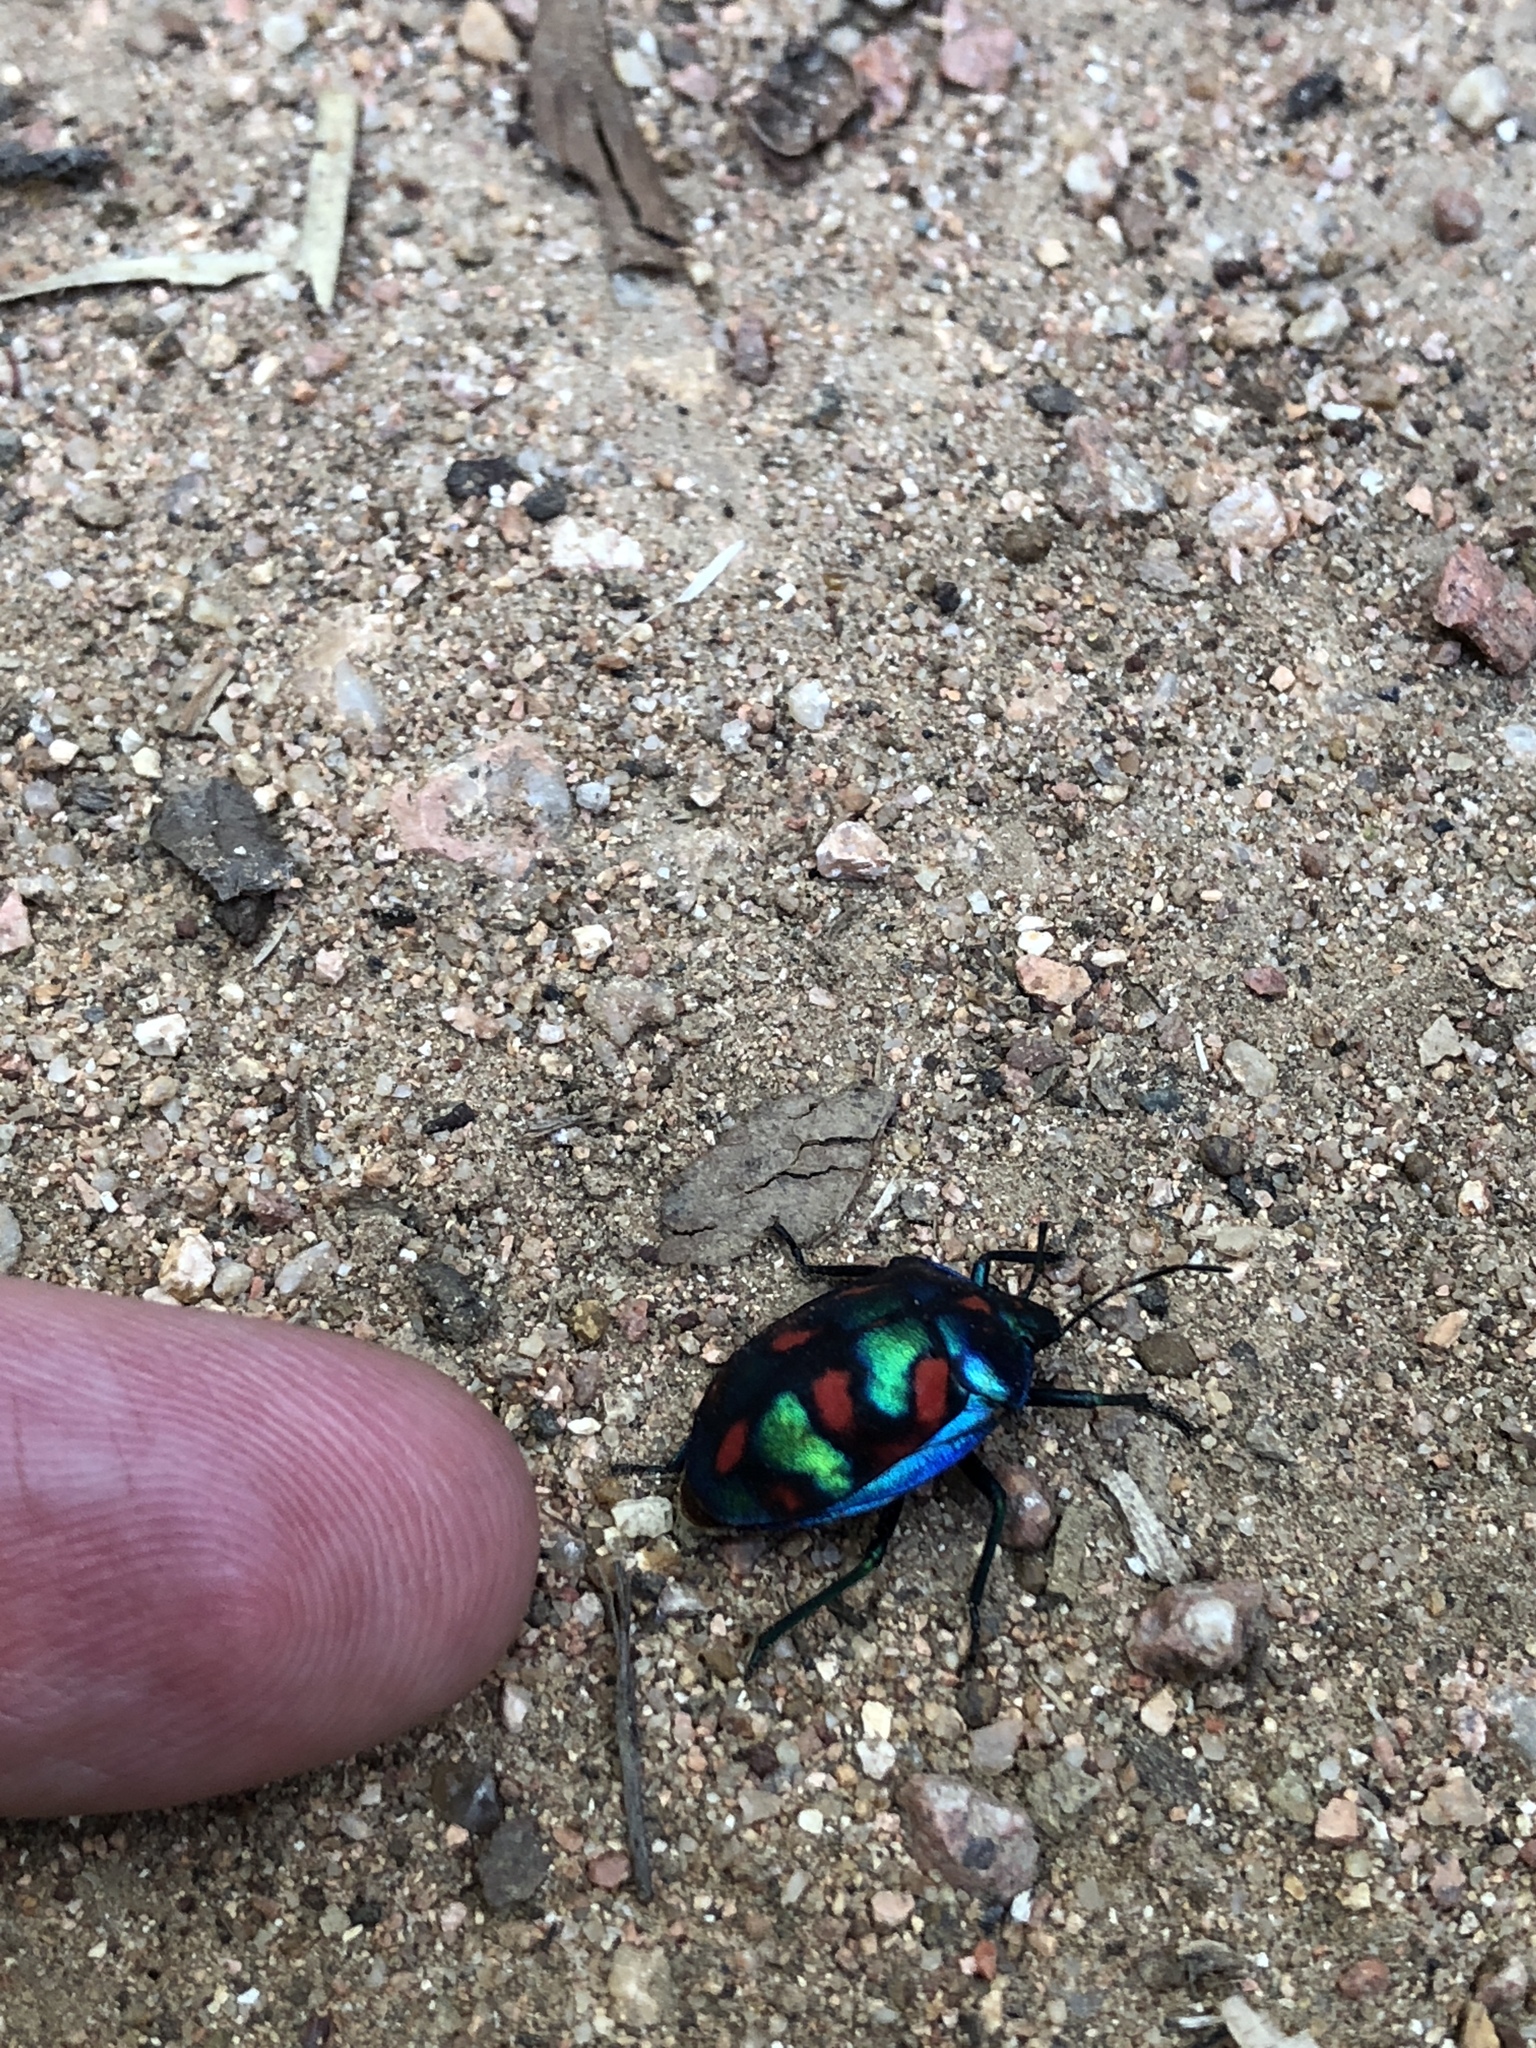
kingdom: Animalia
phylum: Arthropoda
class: Insecta
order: Hemiptera
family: Scutelleridae
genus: Tectocoris
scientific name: Tectocoris diophthalmus
